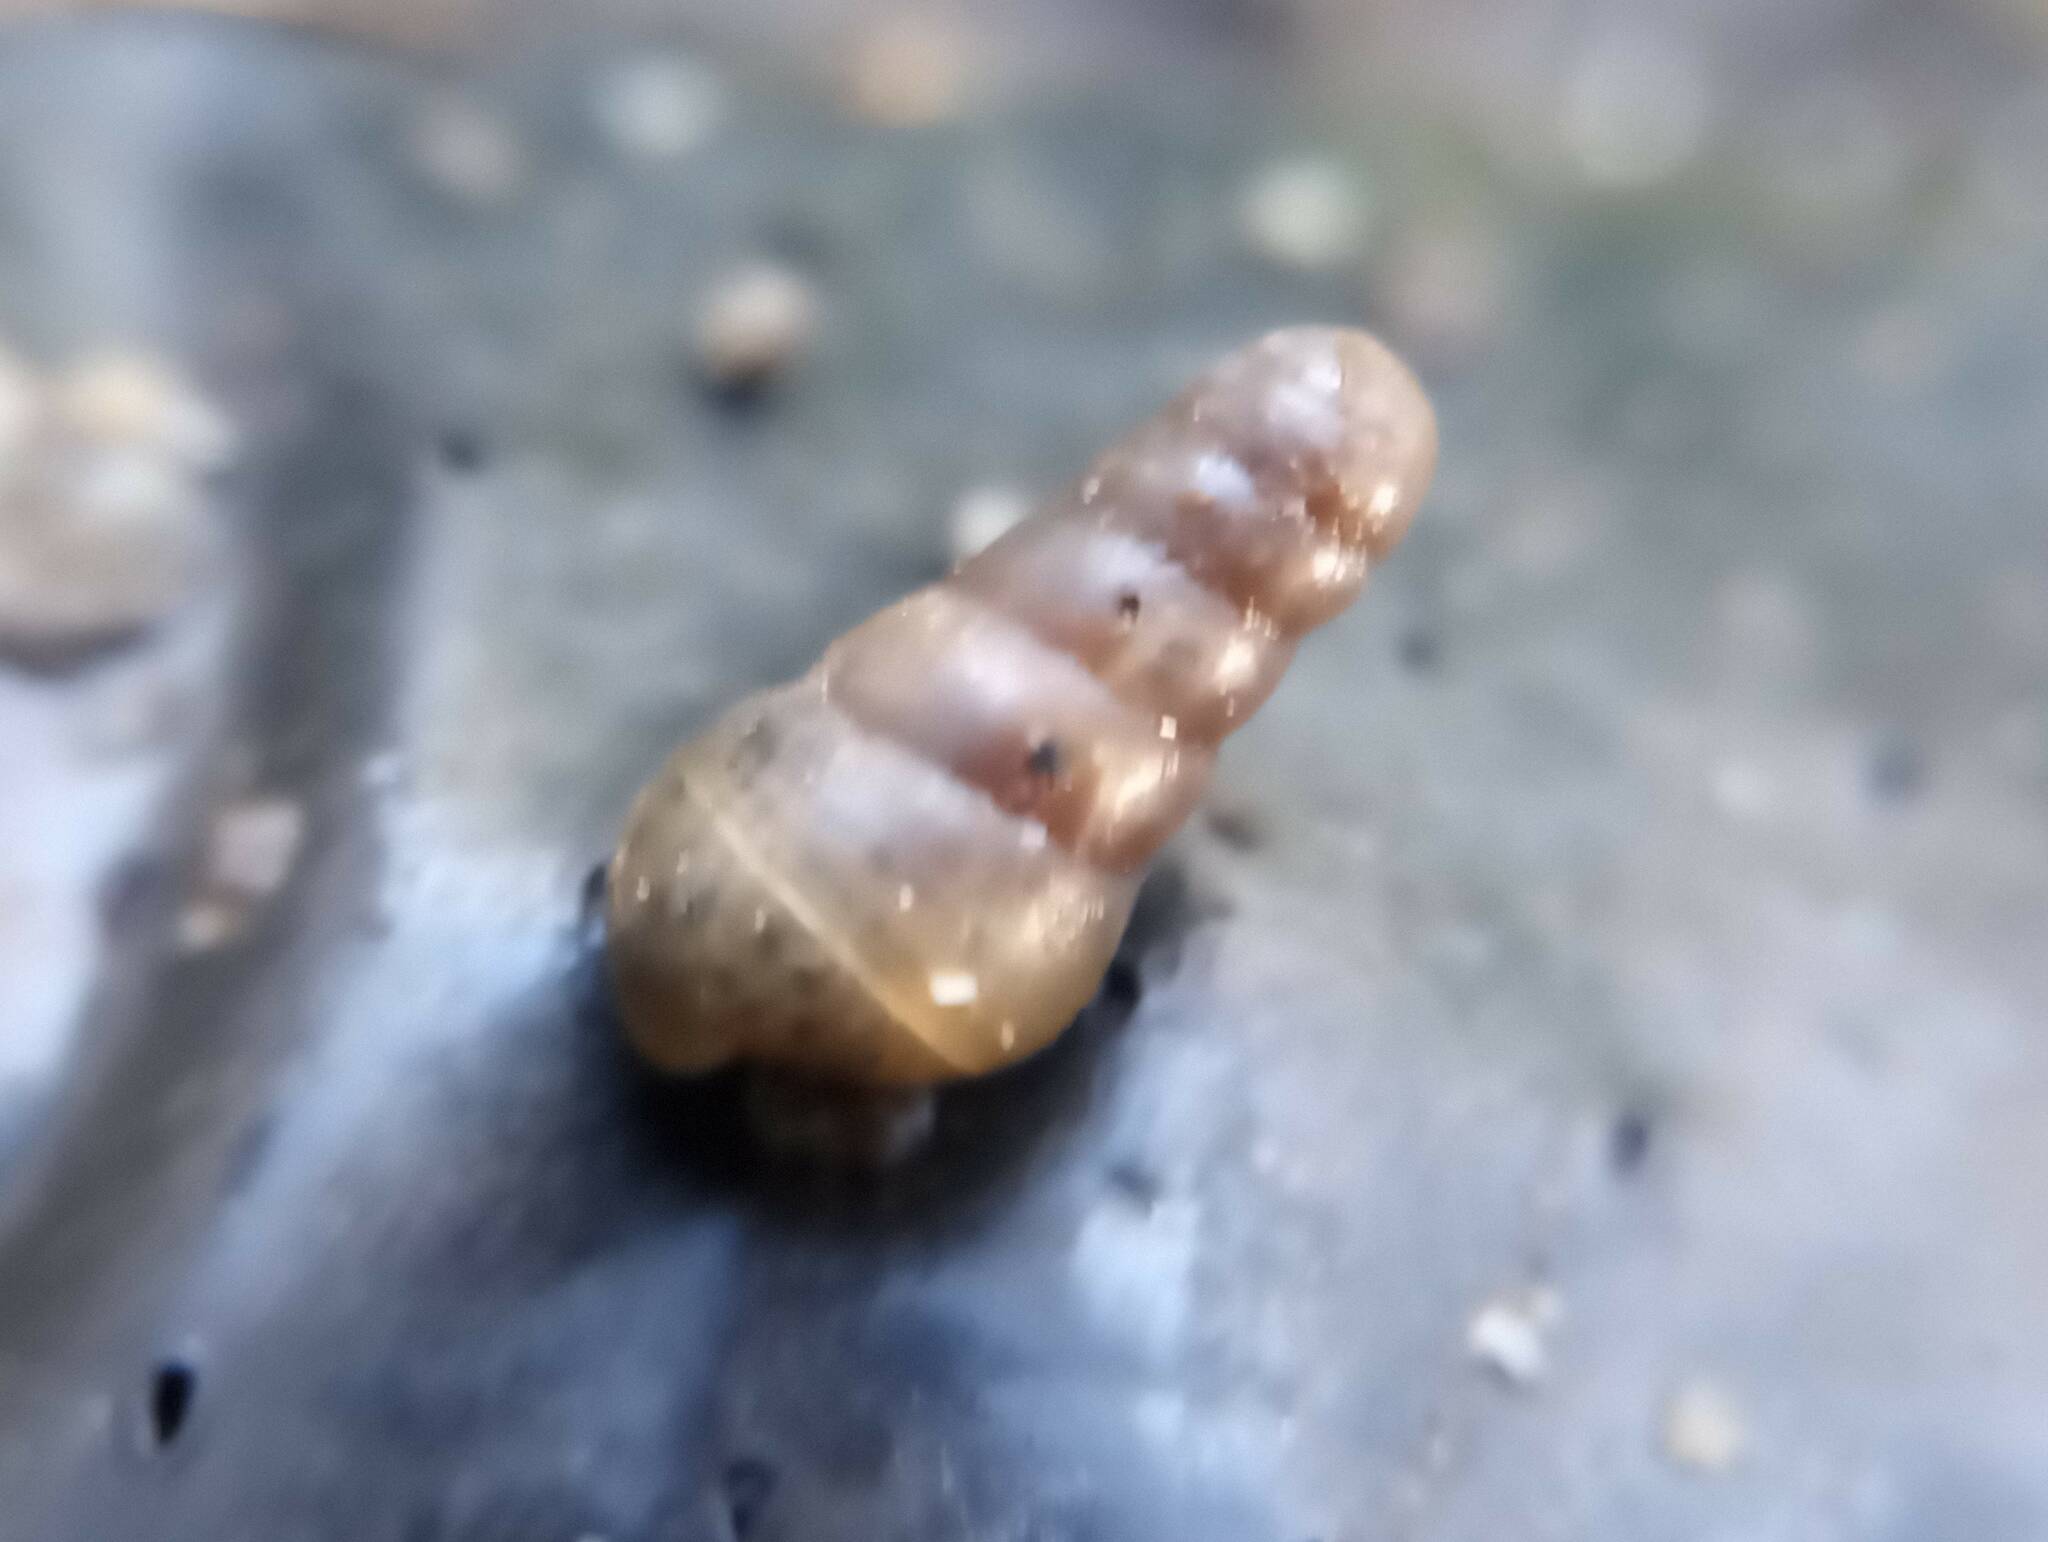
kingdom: Animalia
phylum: Mollusca
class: Gastropoda
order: Stylommatophora
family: Achatinidae
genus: Rumina
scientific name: Rumina decollata
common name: Decollate snail
